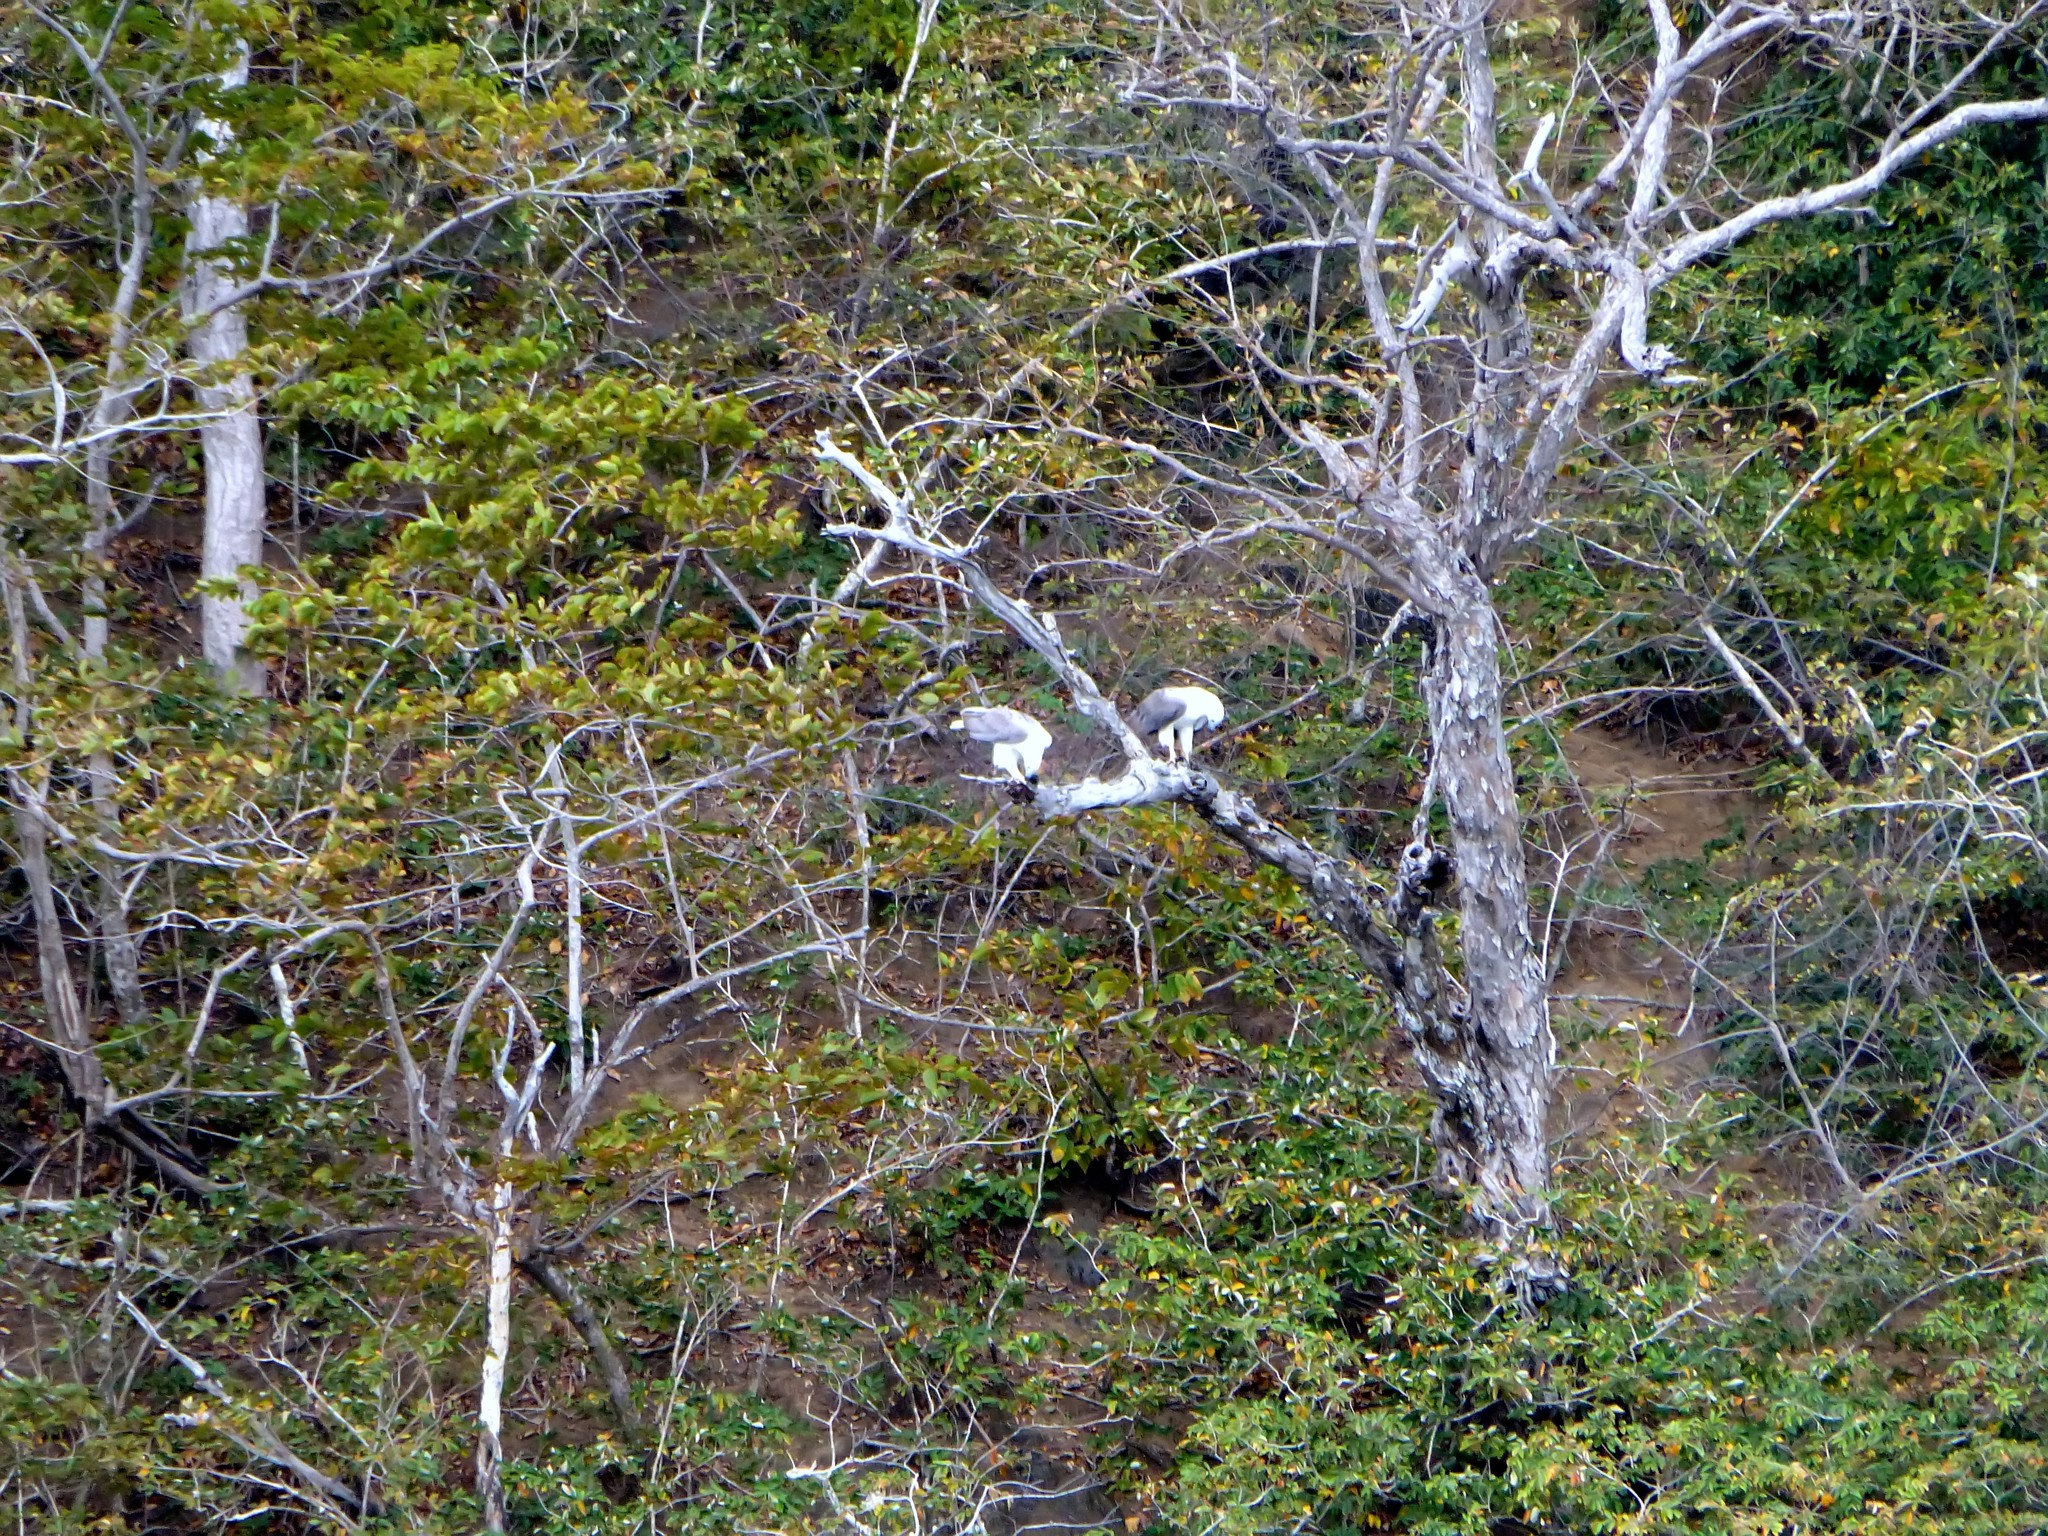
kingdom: Animalia
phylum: Chordata
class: Aves
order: Accipitriformes
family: Accipitridae
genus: Haliaeetus
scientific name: Haliaeetus leucogaster
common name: White-bellied sea eagle
